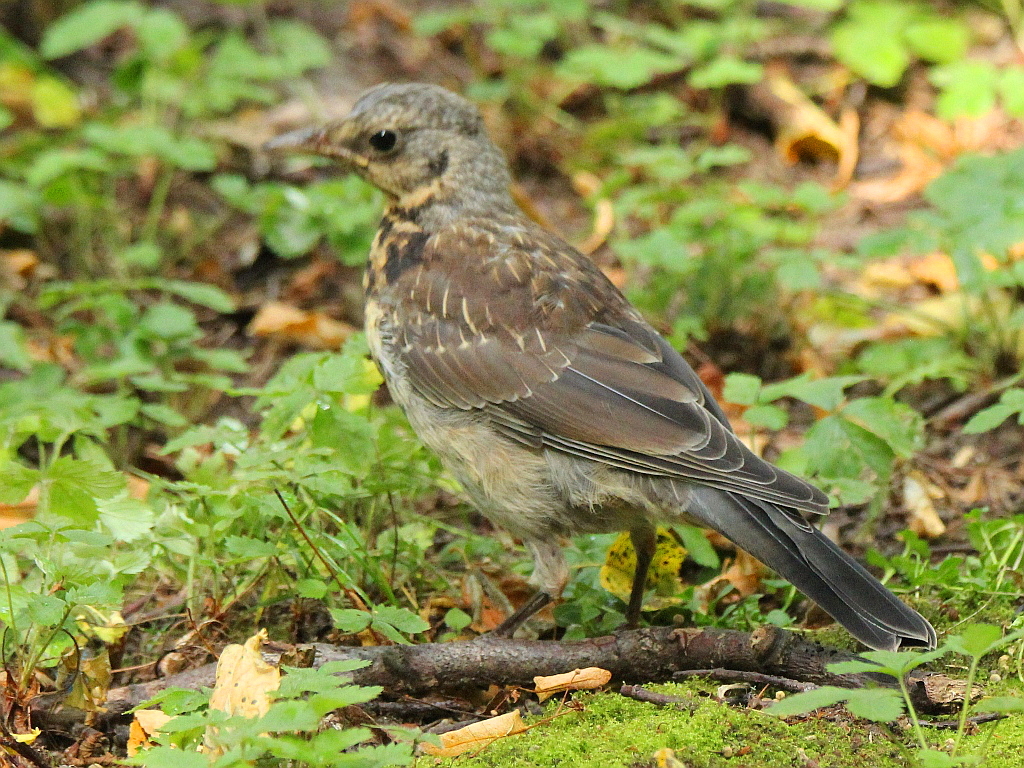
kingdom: Animalia
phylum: Chordata
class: Aves
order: Passeriformes
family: Turdidae
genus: Turdus
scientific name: Turdus pilaris
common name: Fieldfare
